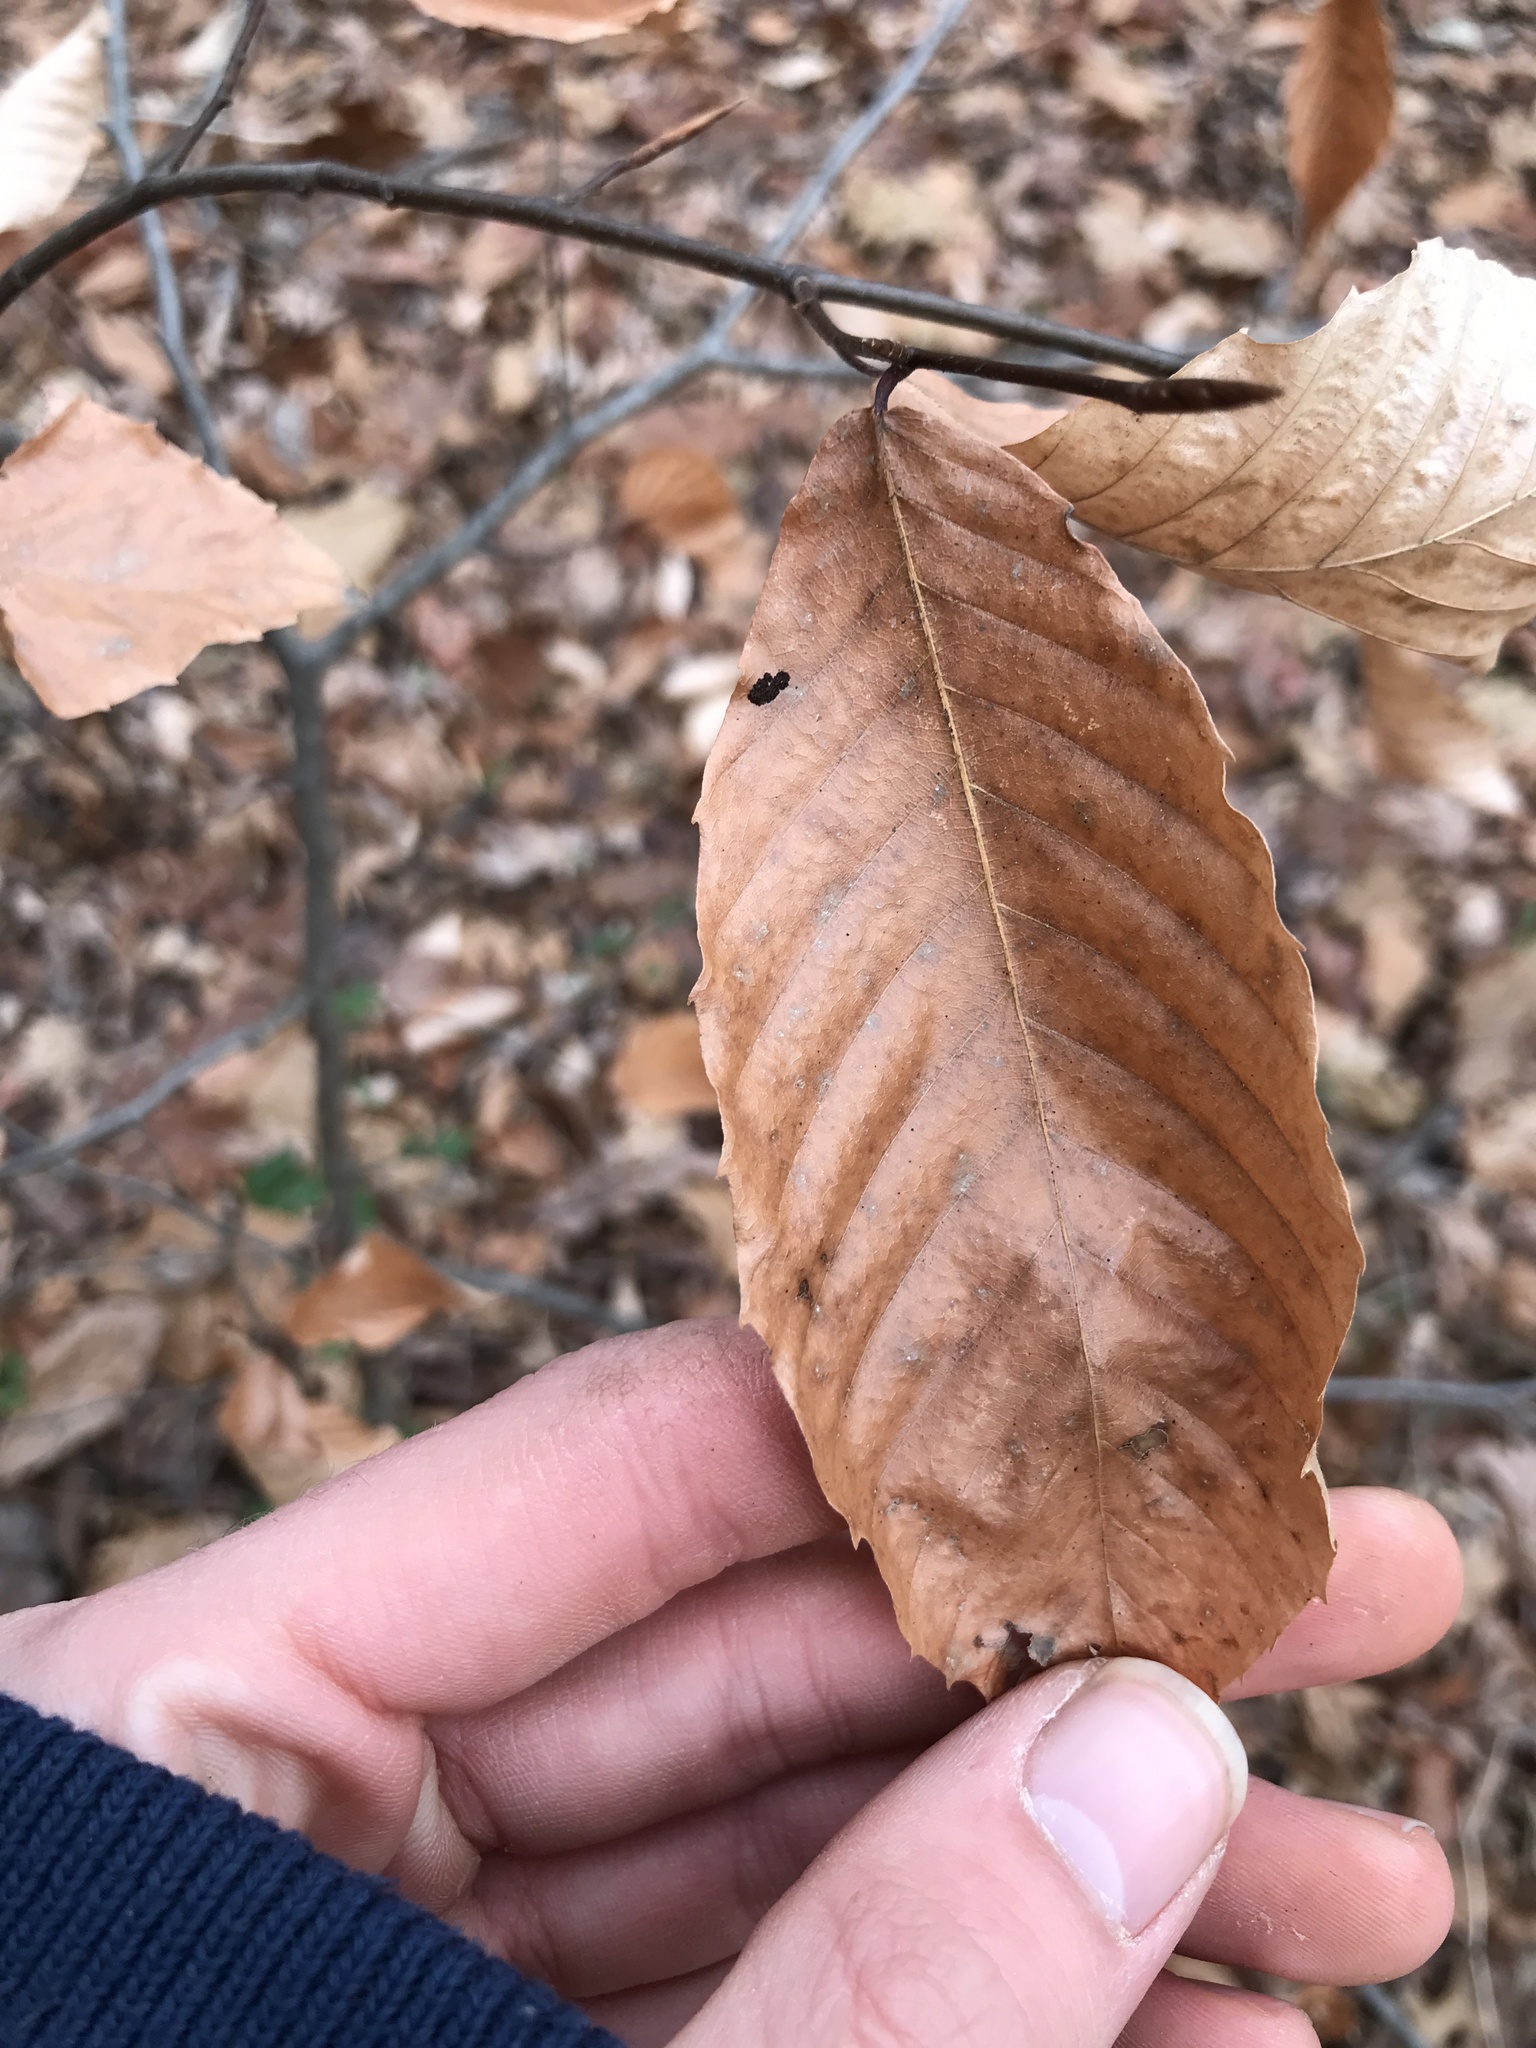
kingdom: Plantae
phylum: Tracheophyta
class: Magnoliopsida
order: Fagales
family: Fagaceae
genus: Fagus
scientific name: Fagus grandifolia
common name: American beech
